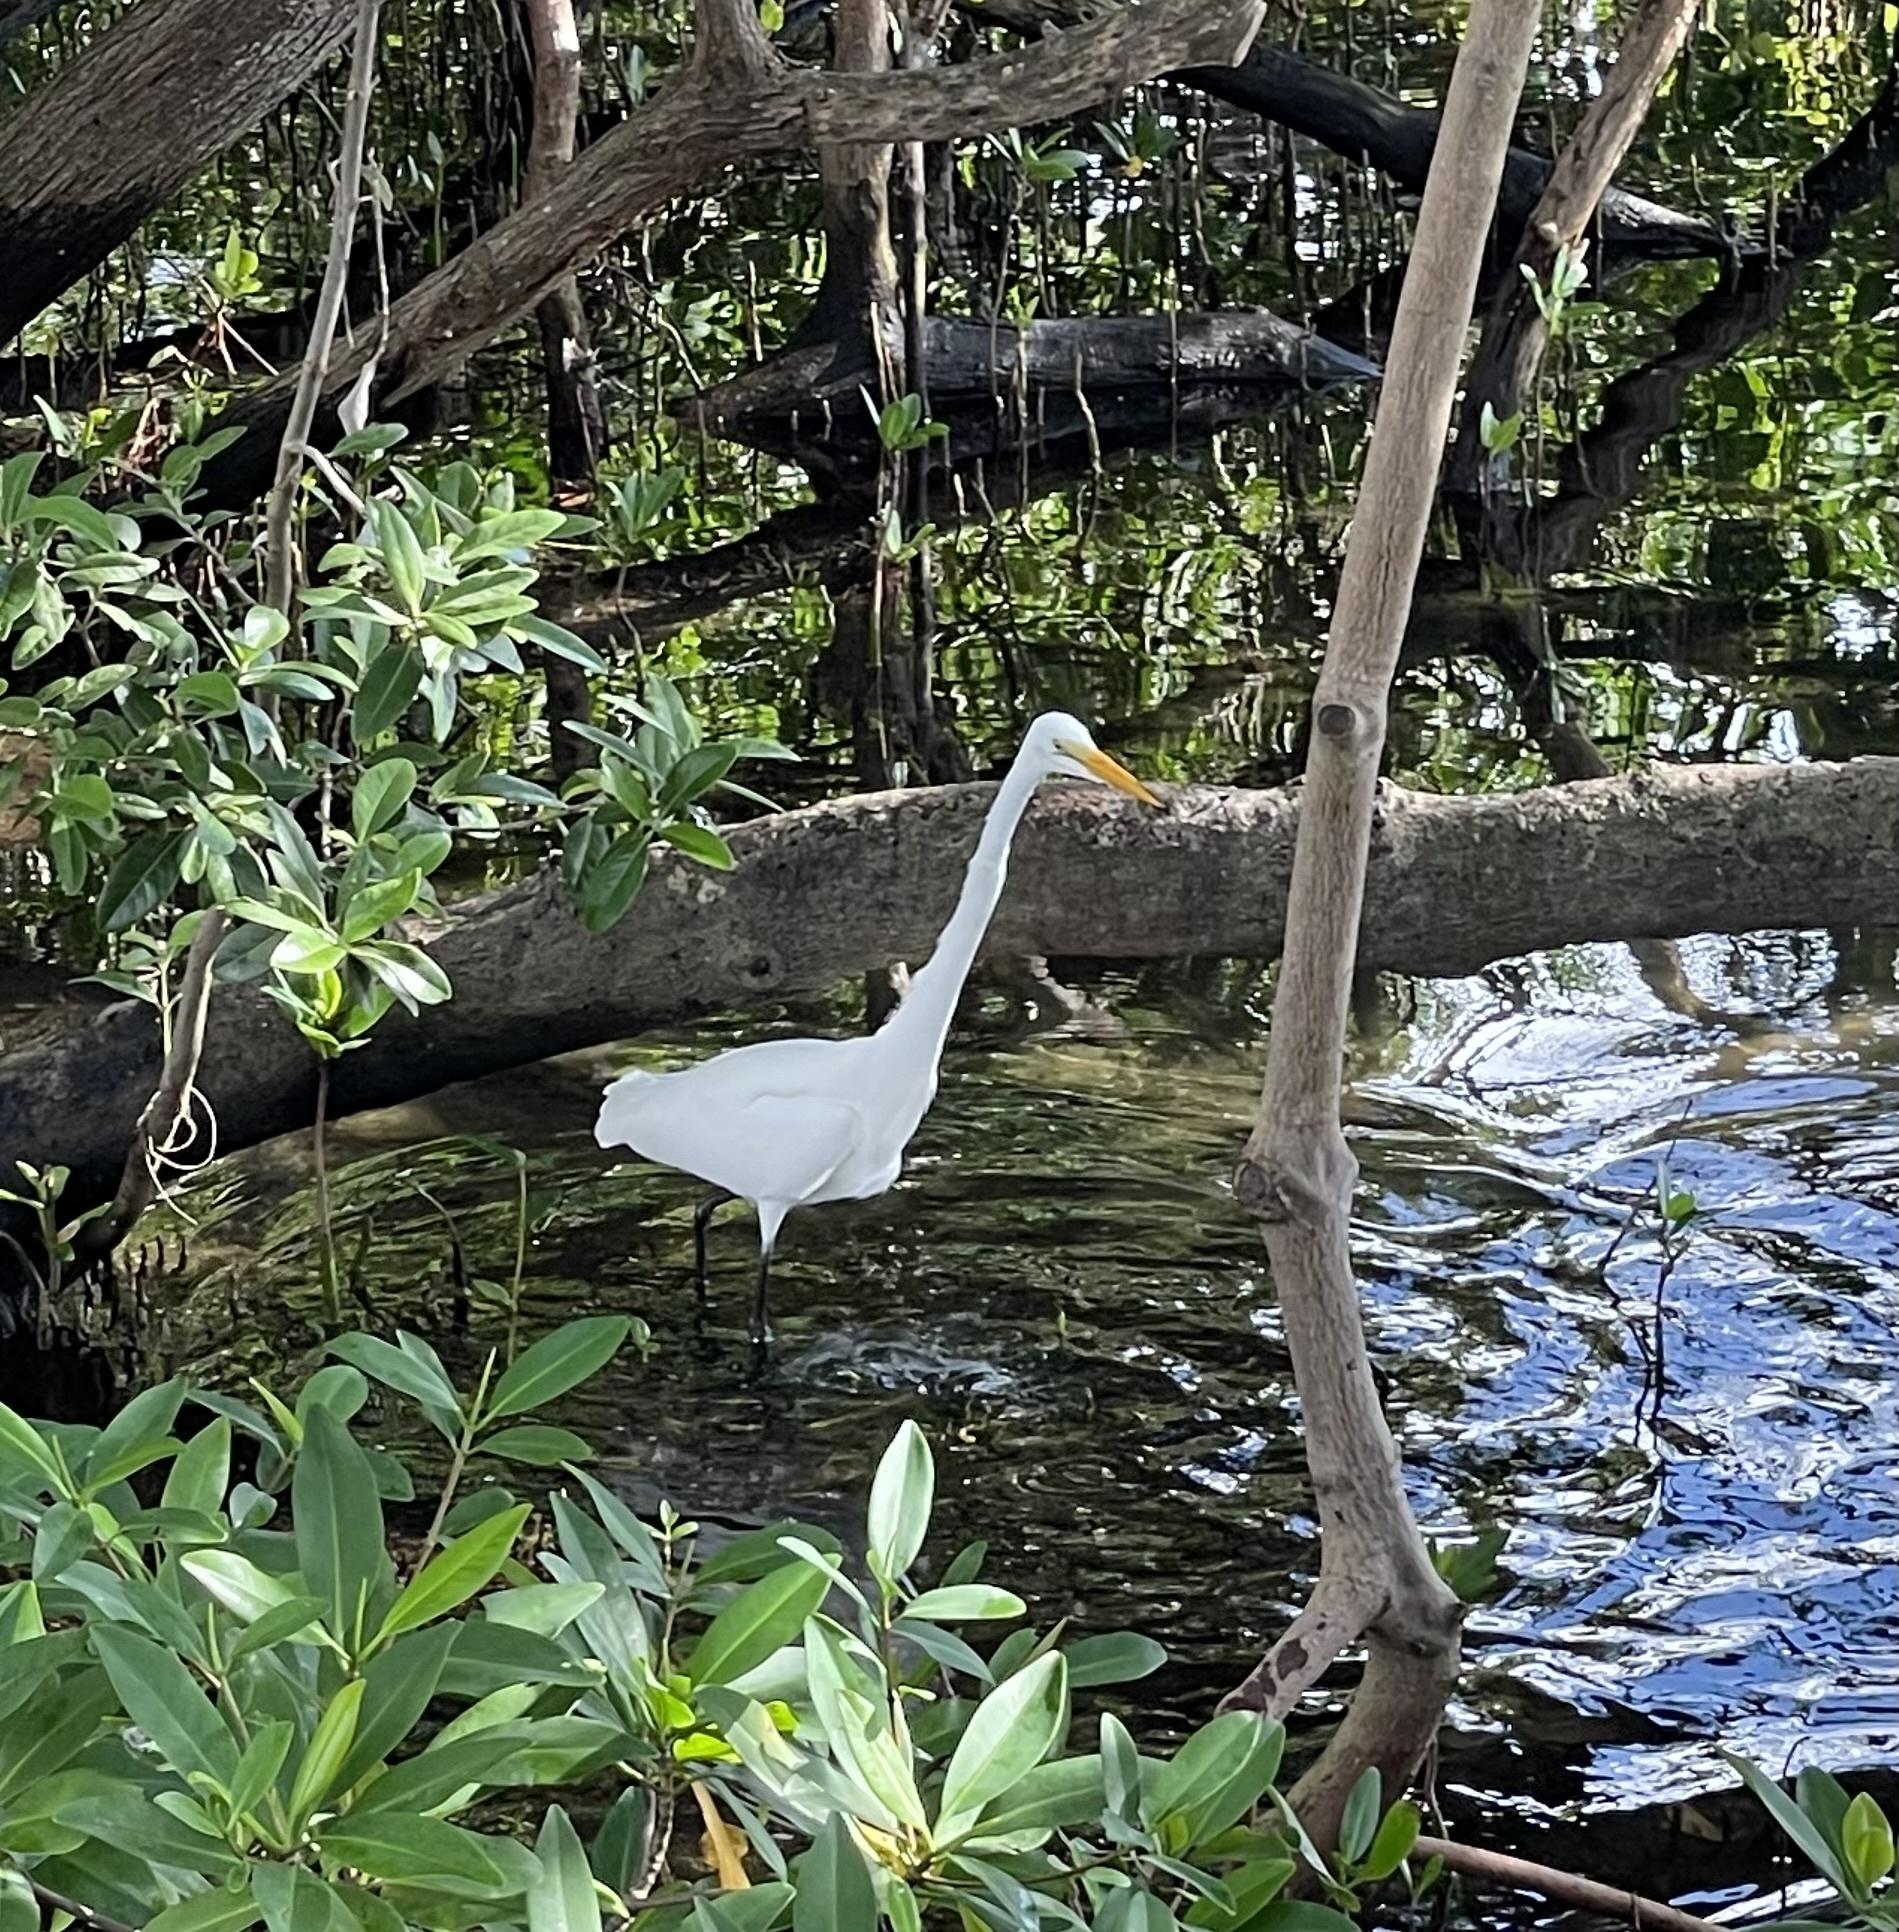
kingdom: Animalia
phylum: Chordata
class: Aves
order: Pelecaniformes
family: Ardeidae
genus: Ardea
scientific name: Ardea alba
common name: Great egret
